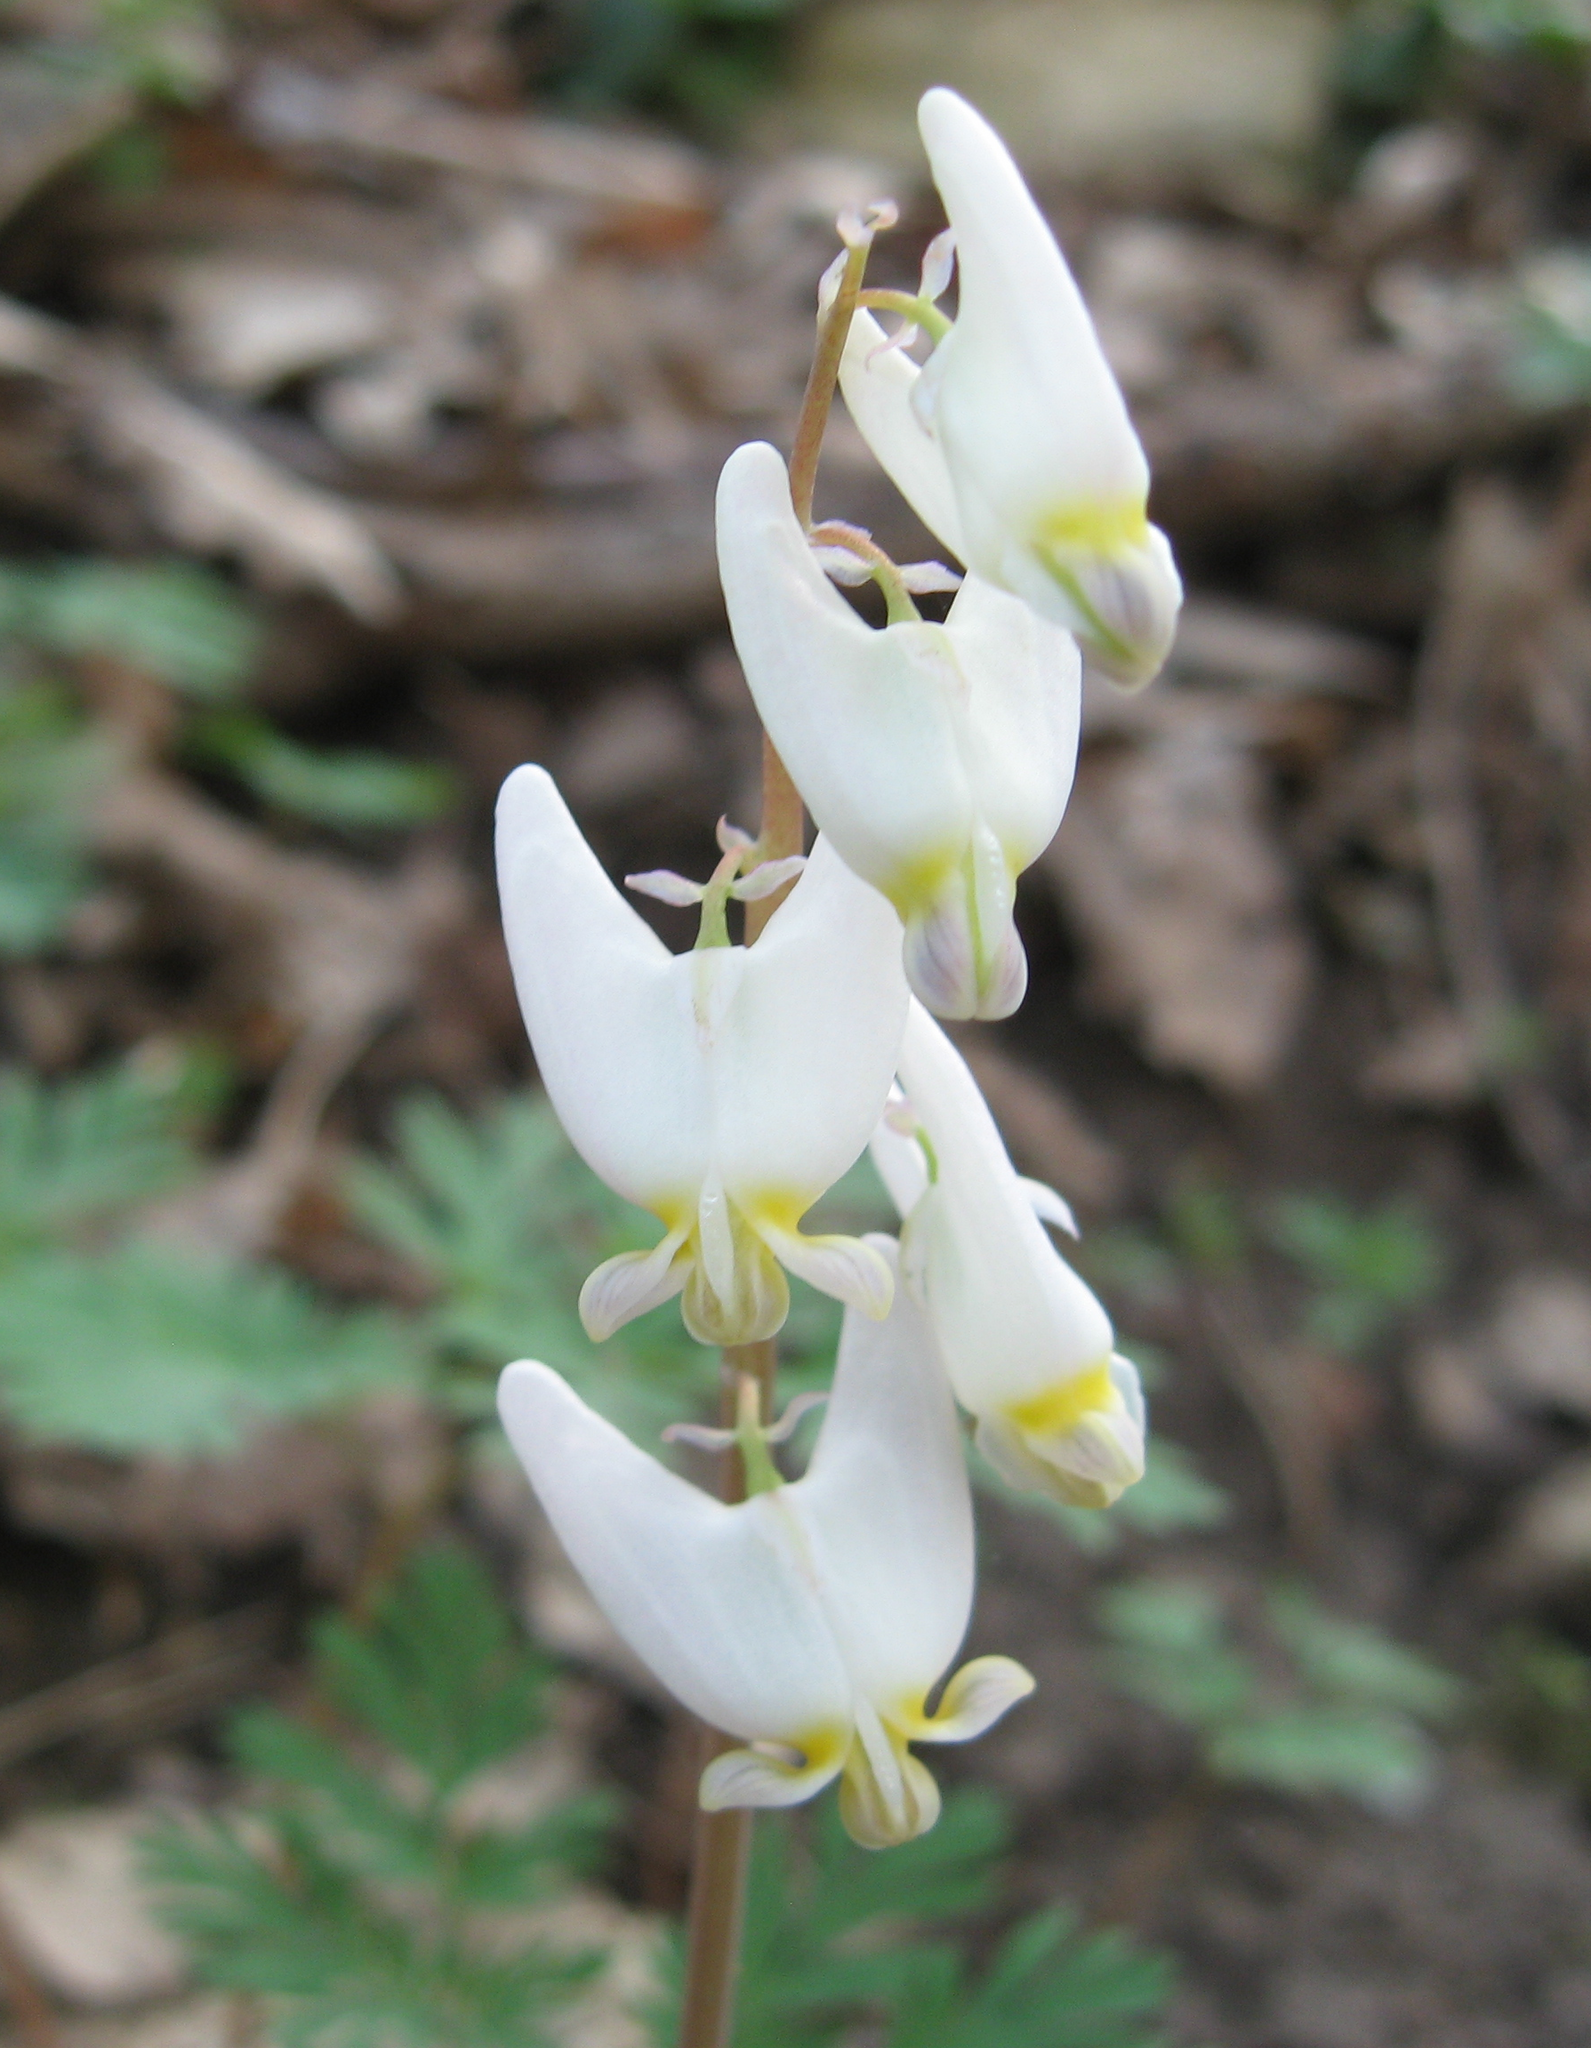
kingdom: Plantae
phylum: Tracheophyta
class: Magnoliopsida
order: Ranunculales
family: Papaveraceae
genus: Dicentra
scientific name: Dicentra cucullaria
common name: Dutchman's breeches
